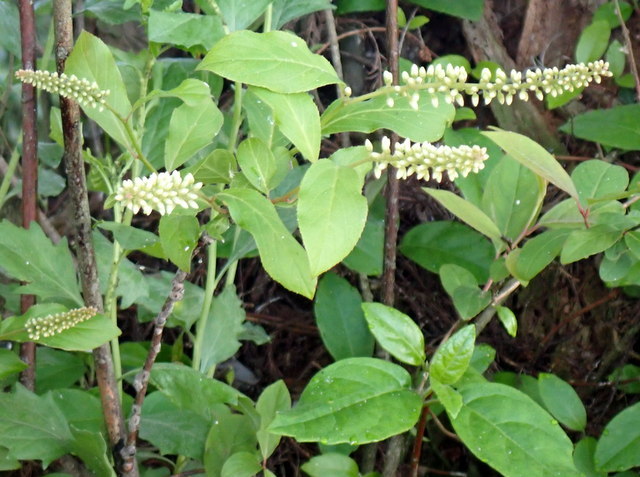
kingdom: Plantae
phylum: Tracheophyta
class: Magnoliopsida
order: Saxifragales
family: Iteaceae
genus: Itea
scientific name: Itea virginica
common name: Sweetspire
